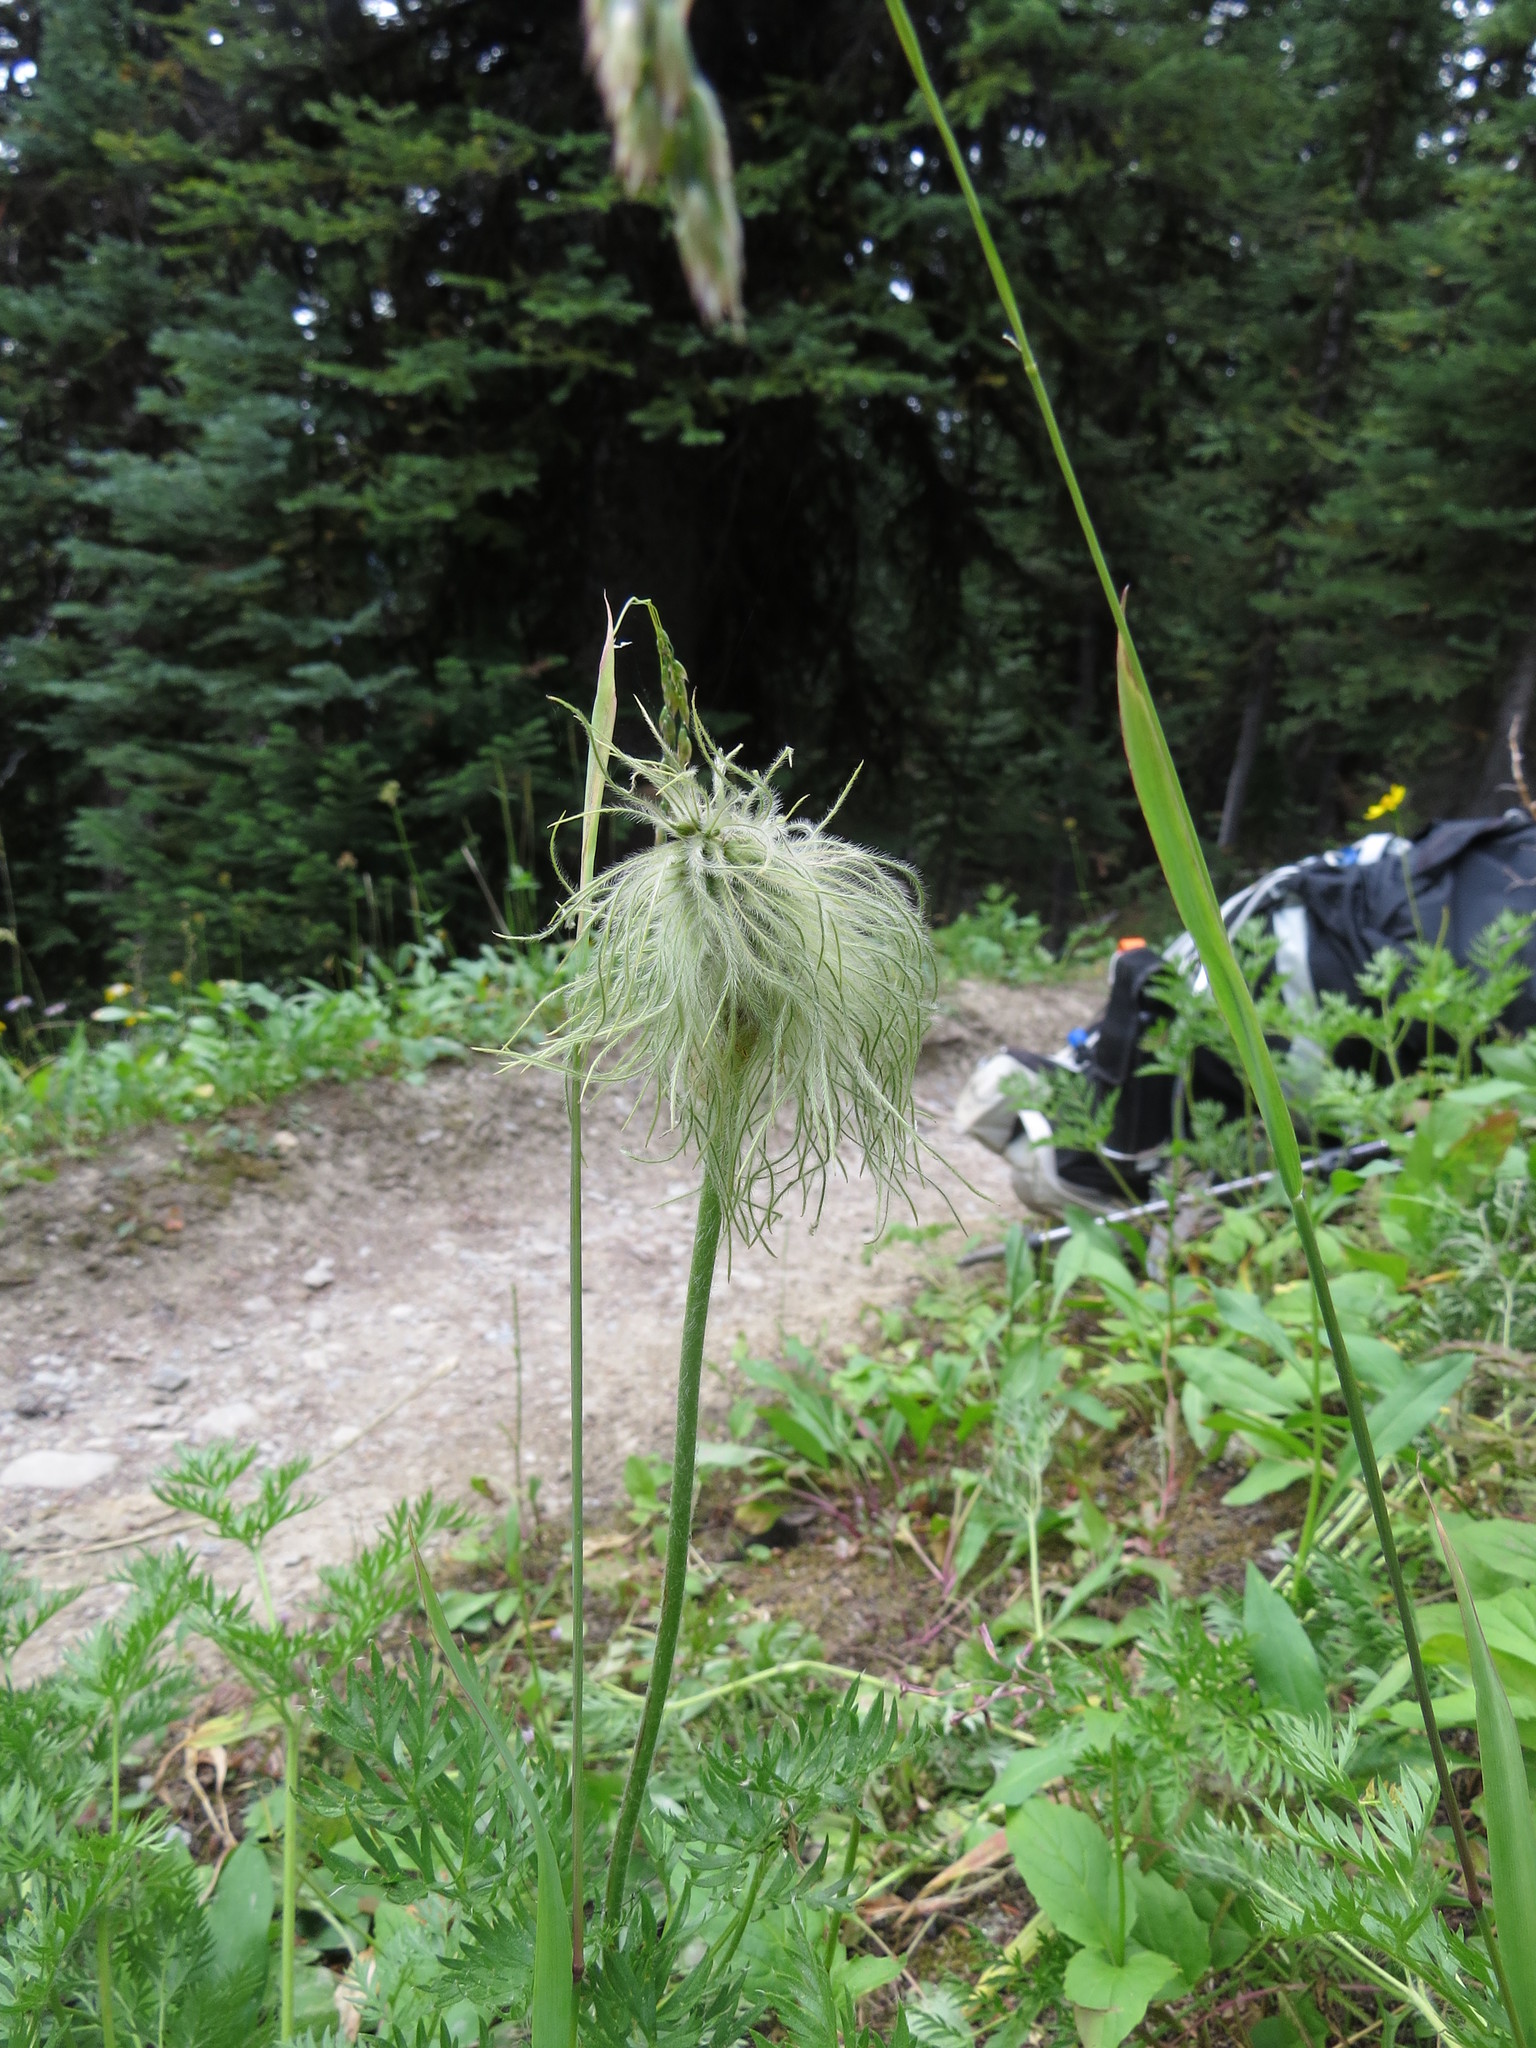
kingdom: Plantae
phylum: Tracheophyta
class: Magnoliopsida
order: Ranunculales
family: Ranunculaceae
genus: Pulsatilla
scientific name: Pulsatilla occidentalis
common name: Mountain pasqueflower
